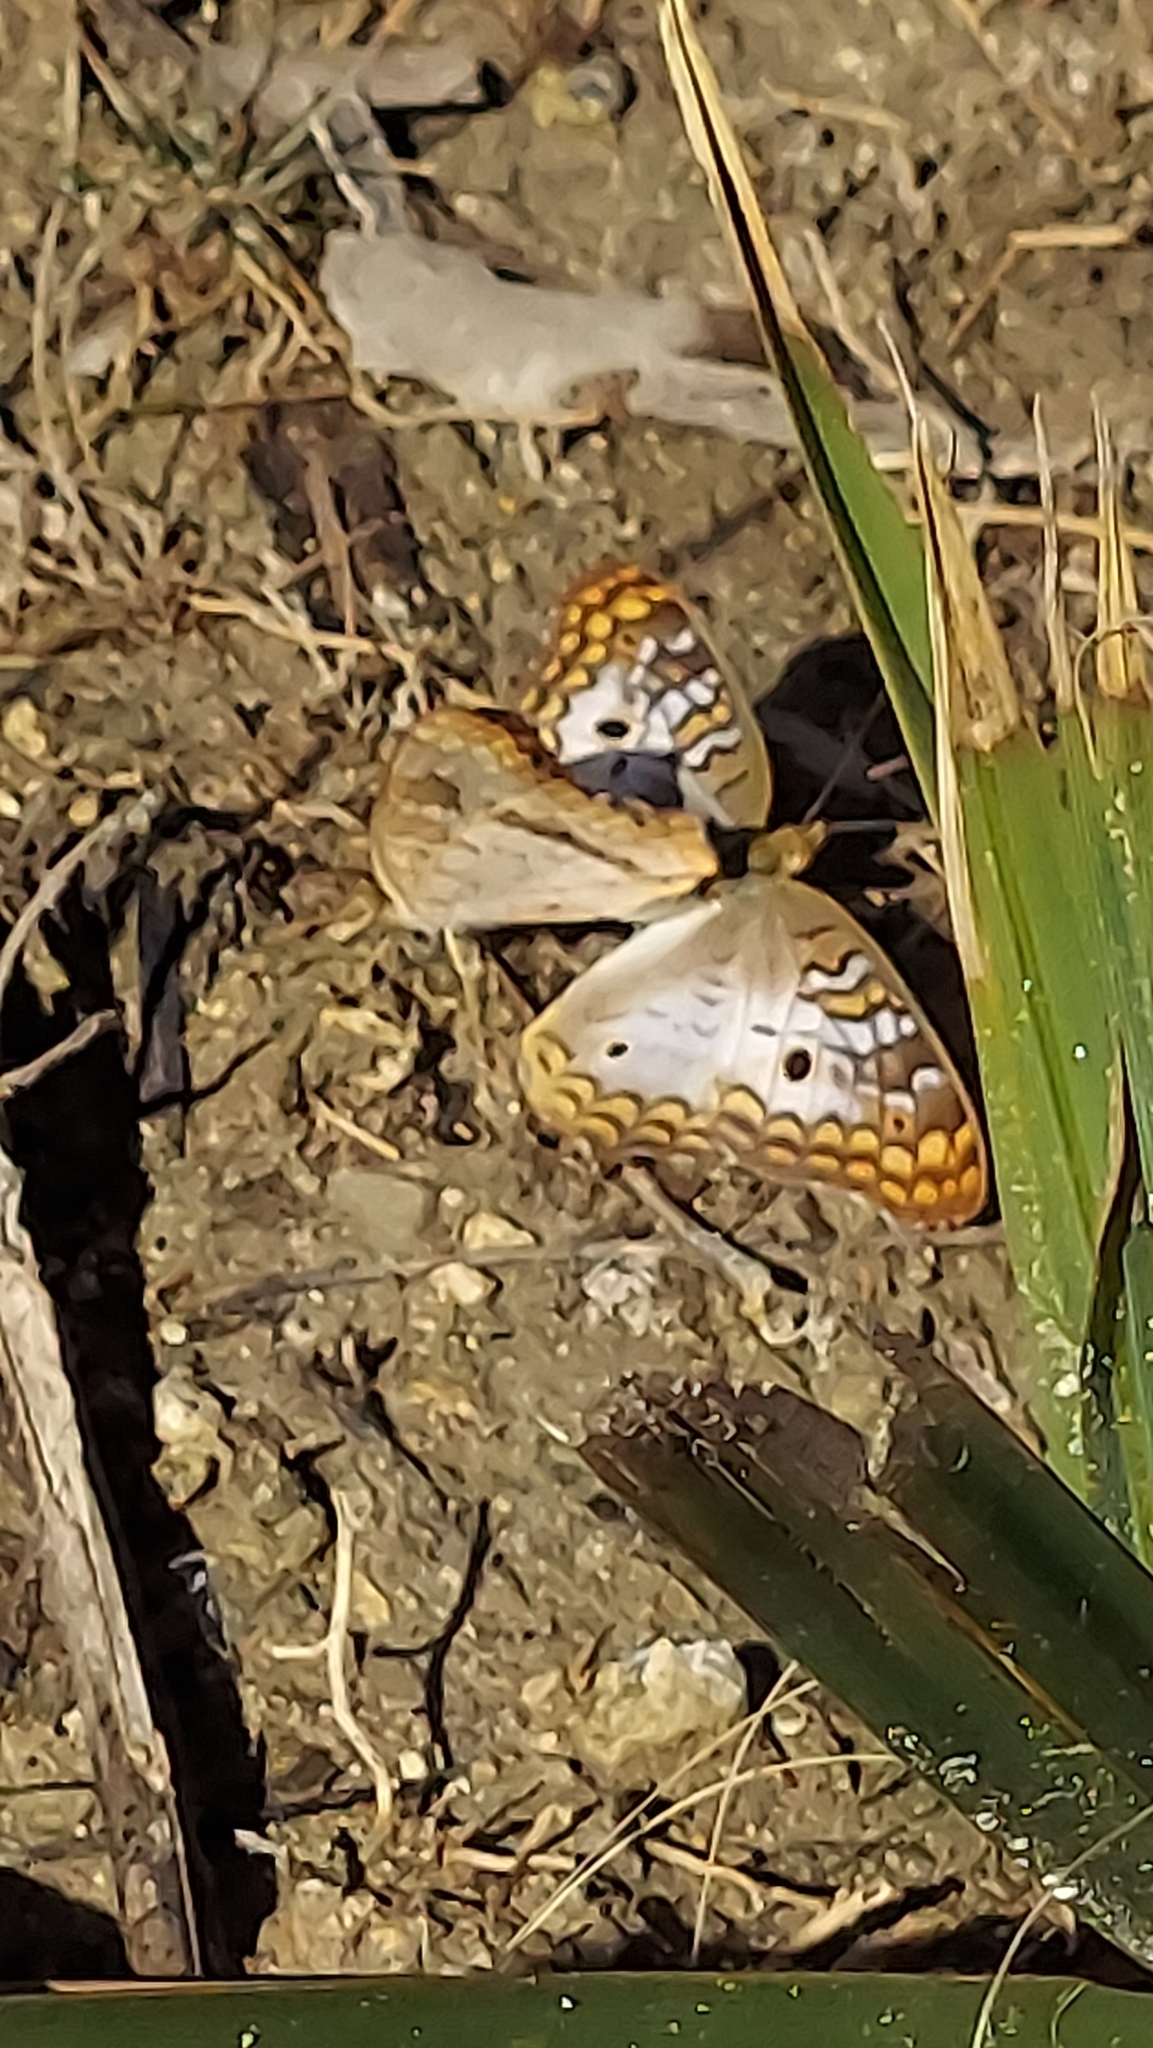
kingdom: Animalia
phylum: Arthropoda
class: Insecta
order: Lepidoptera
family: Nymphalidae
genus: Anartia
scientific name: Anartia jatrophae
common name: White peacock
